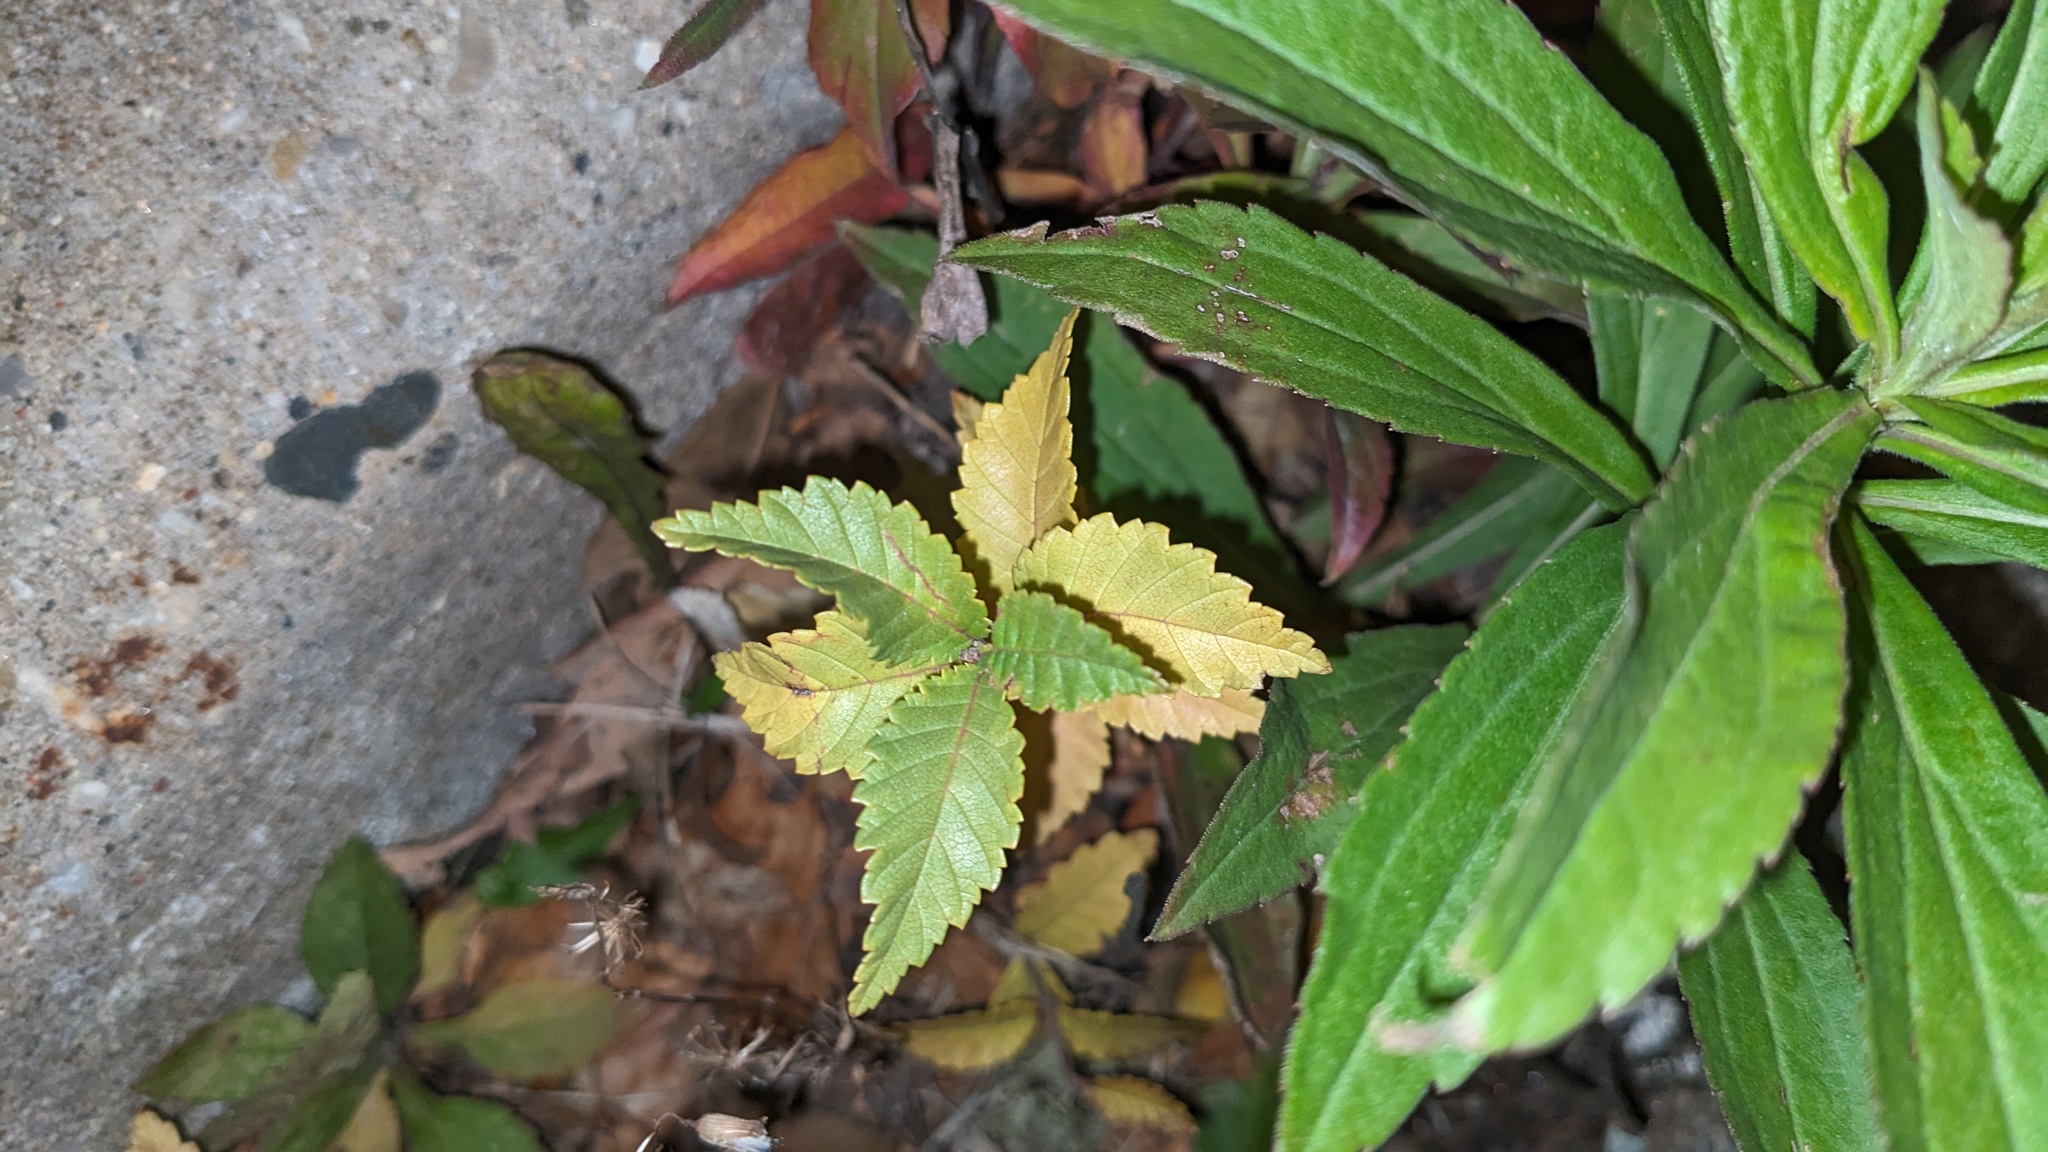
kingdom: Plantae
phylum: Tracheophyta
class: Magnoliopsida
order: Rosales
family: Ulmaceae
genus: Ulmus
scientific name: Ulmus pumila
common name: Siberian elm
